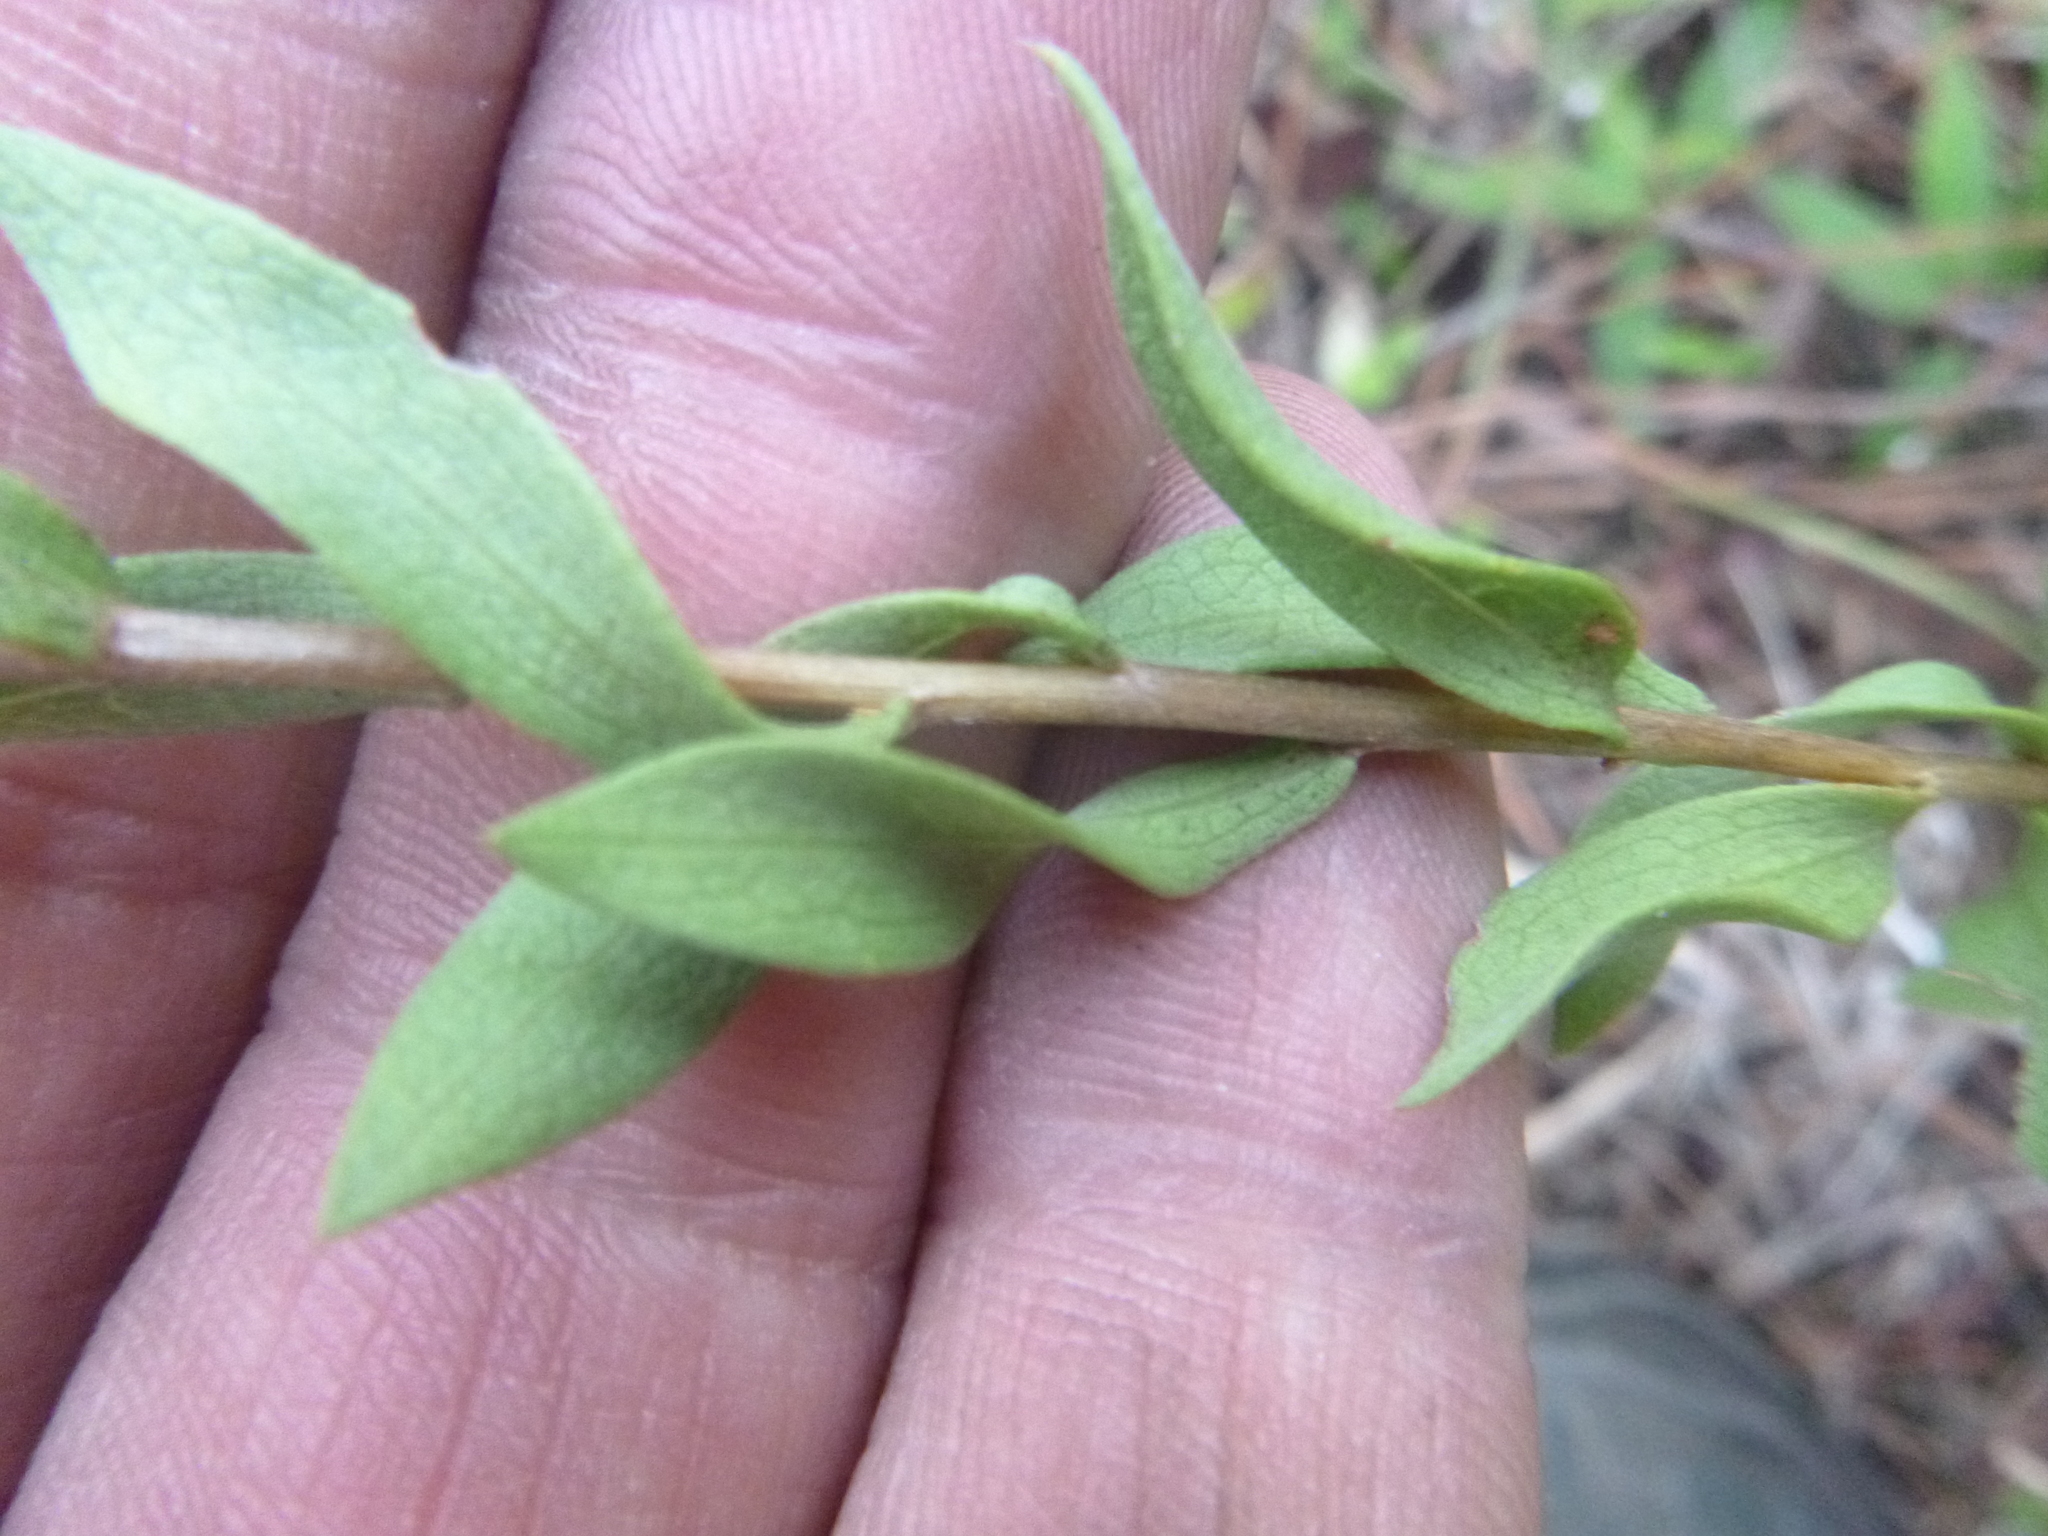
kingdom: Plantae
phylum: Tracheophyta
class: Magnoliopsida
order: Asterales
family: Asteraceae
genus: Symphyotrichum
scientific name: Symphyotrichum concolor
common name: Eastern silver aster
